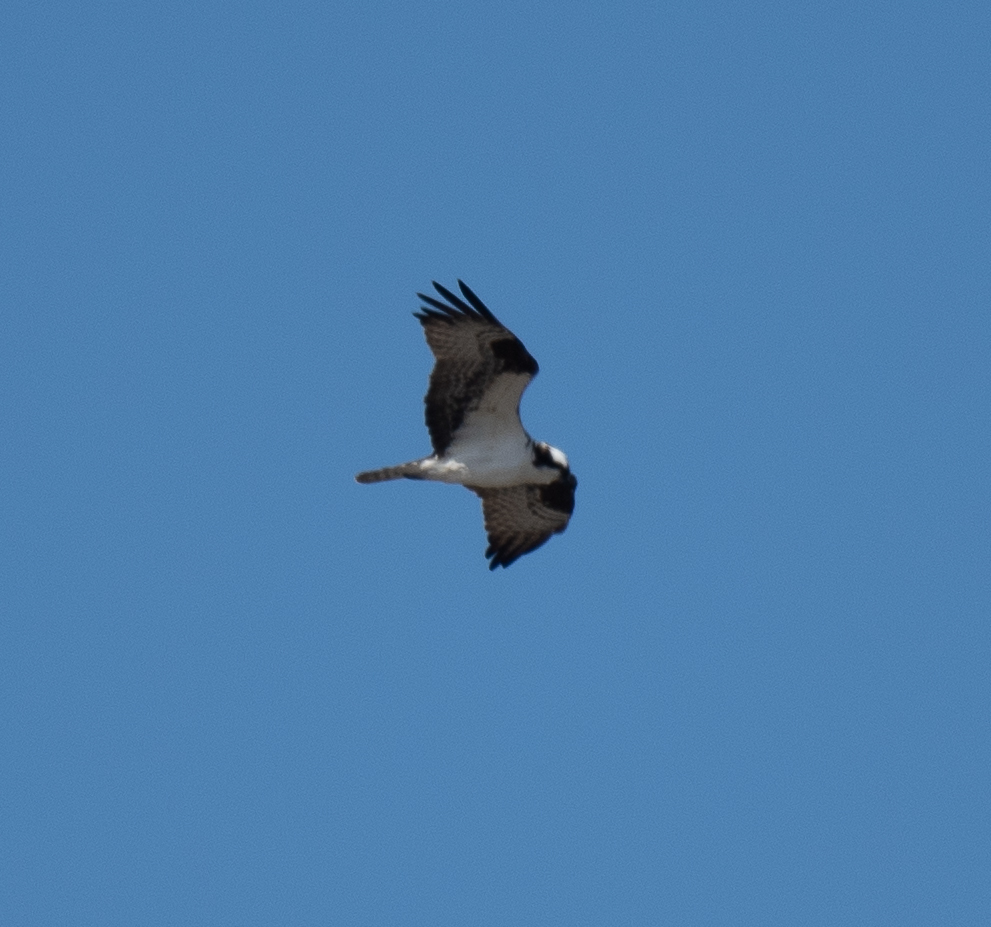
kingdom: Animalia
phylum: Chordata
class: Aves
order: Accipitriformes
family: Pandionidae
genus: Pandion
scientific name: Pandion haliaetus
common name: Osprey
